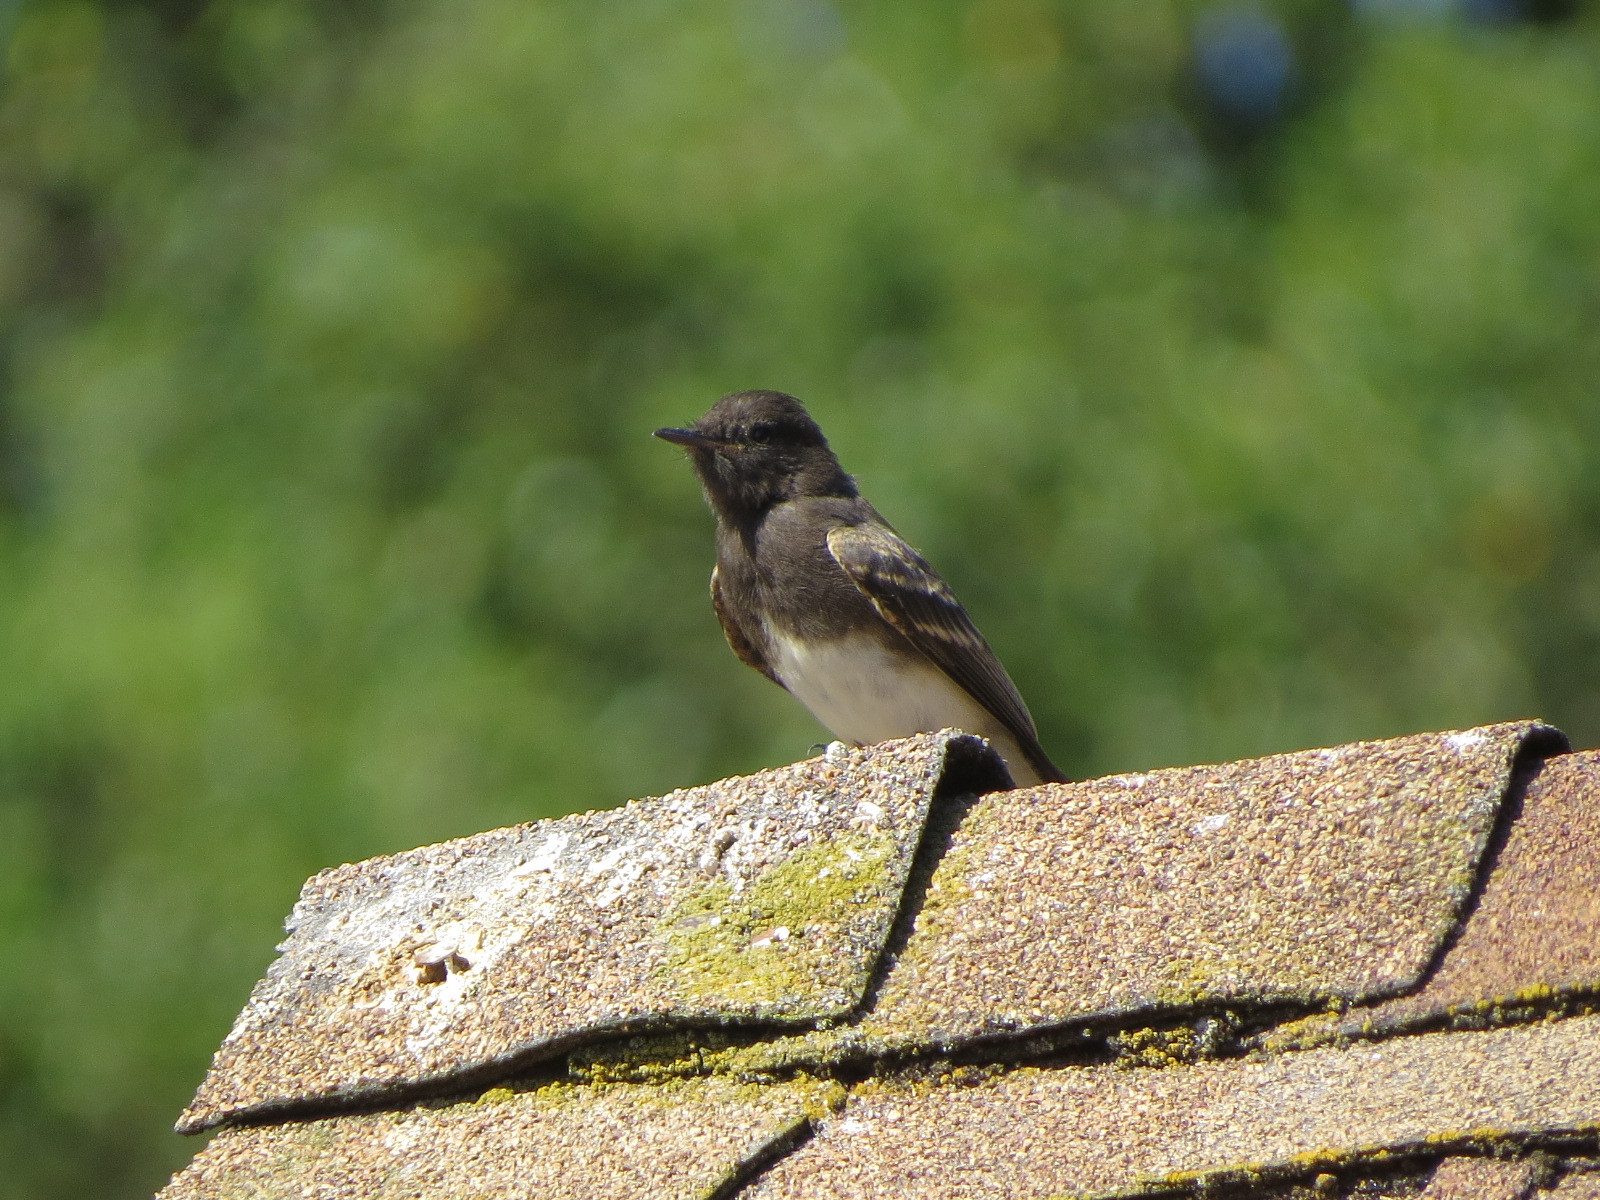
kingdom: Animalia
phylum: Chordata
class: Aves
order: Passeriformes
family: Tyrannidae
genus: Sayornis
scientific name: Sayornis nigricans
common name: Black phoebe
